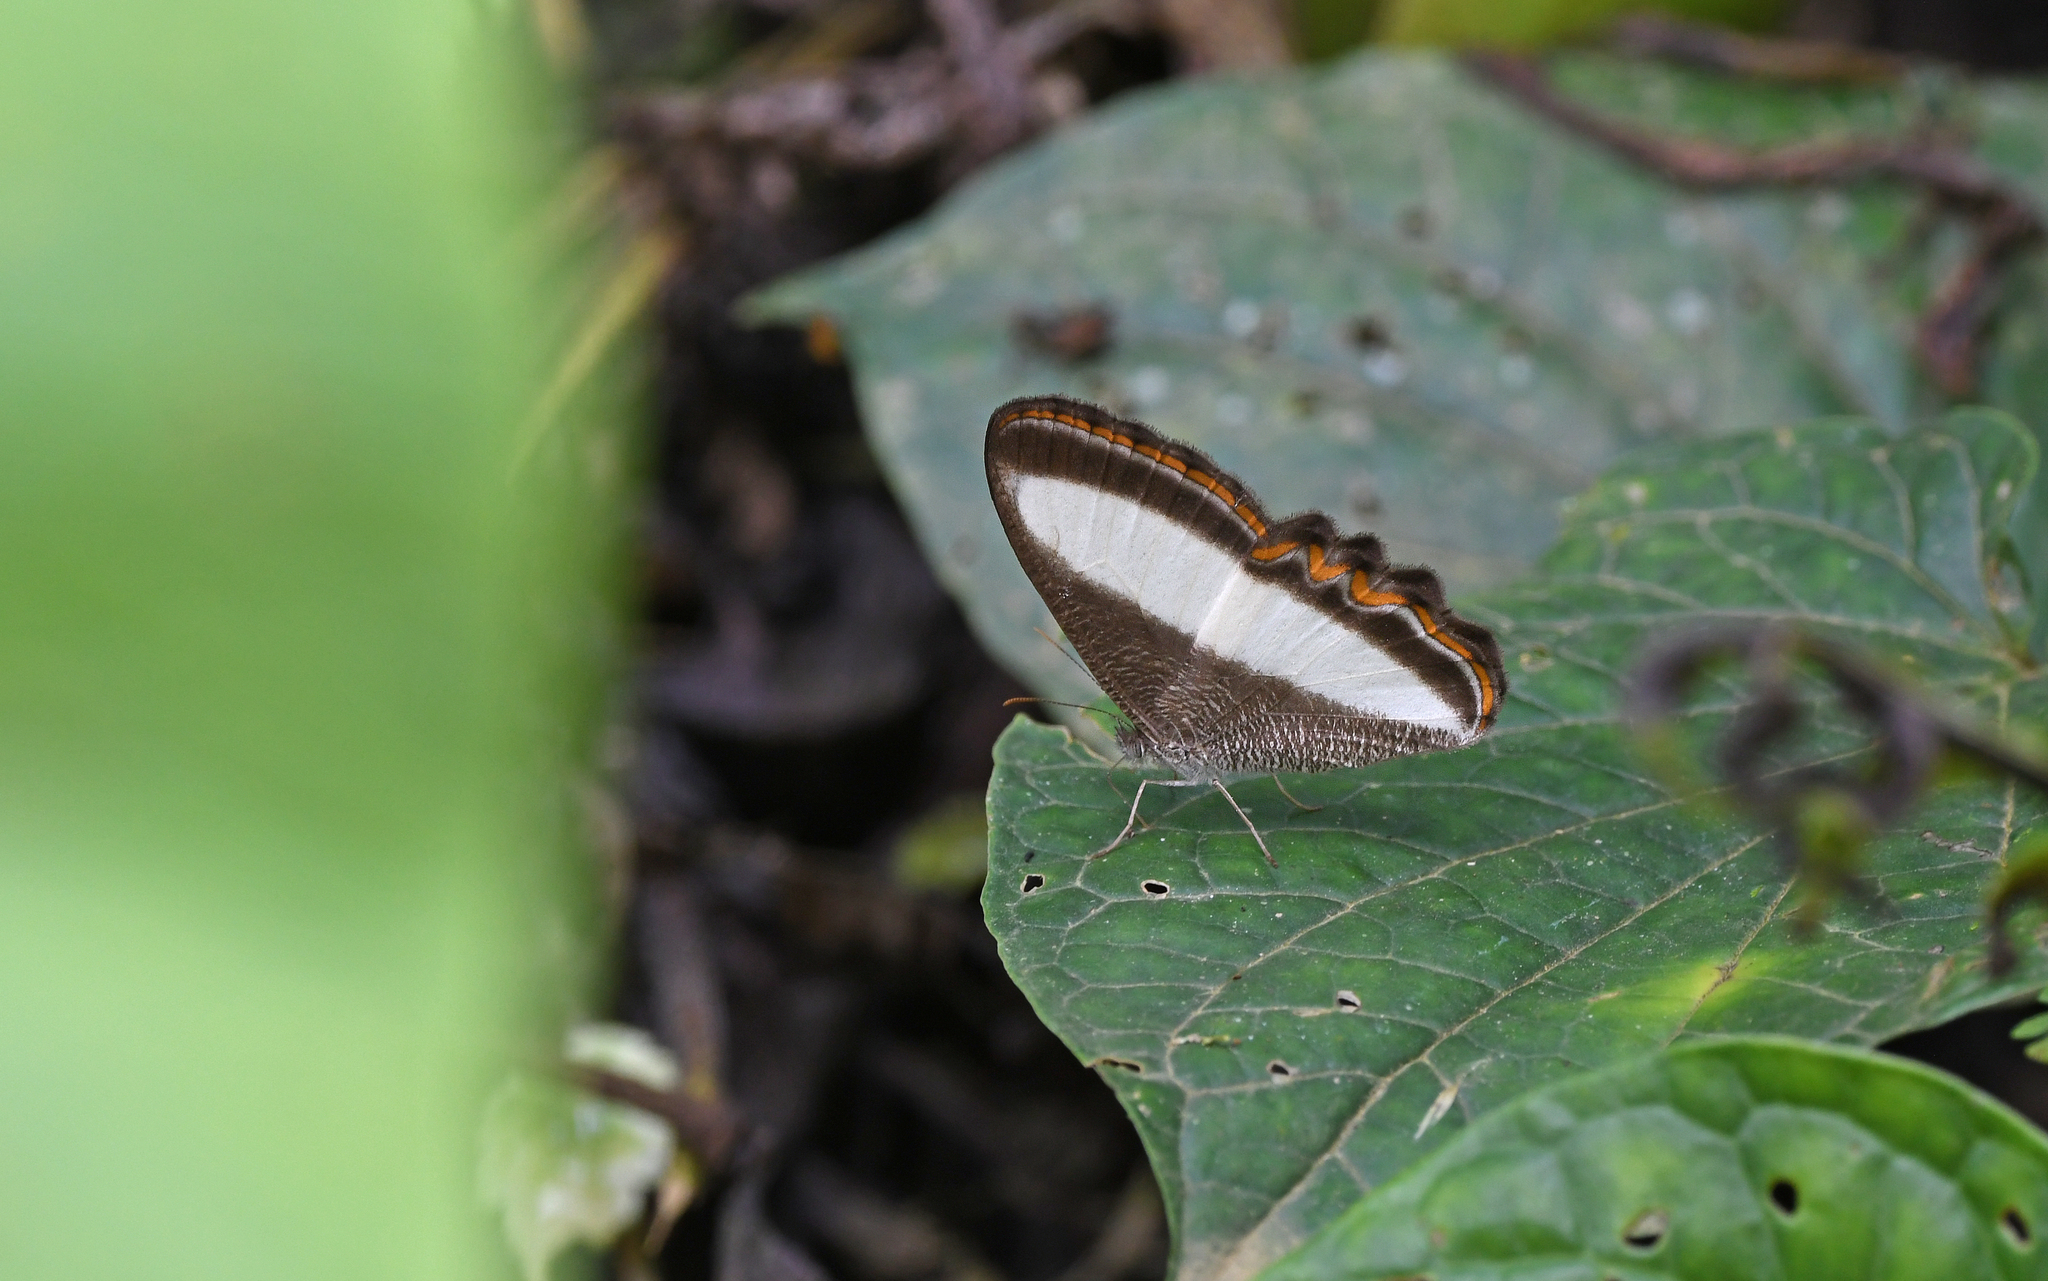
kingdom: Animalia
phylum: Arthropoda
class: Insecta
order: Lepidoptera
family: Nymphalidae
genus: Oressinoma
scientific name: Oressinoma typhla
